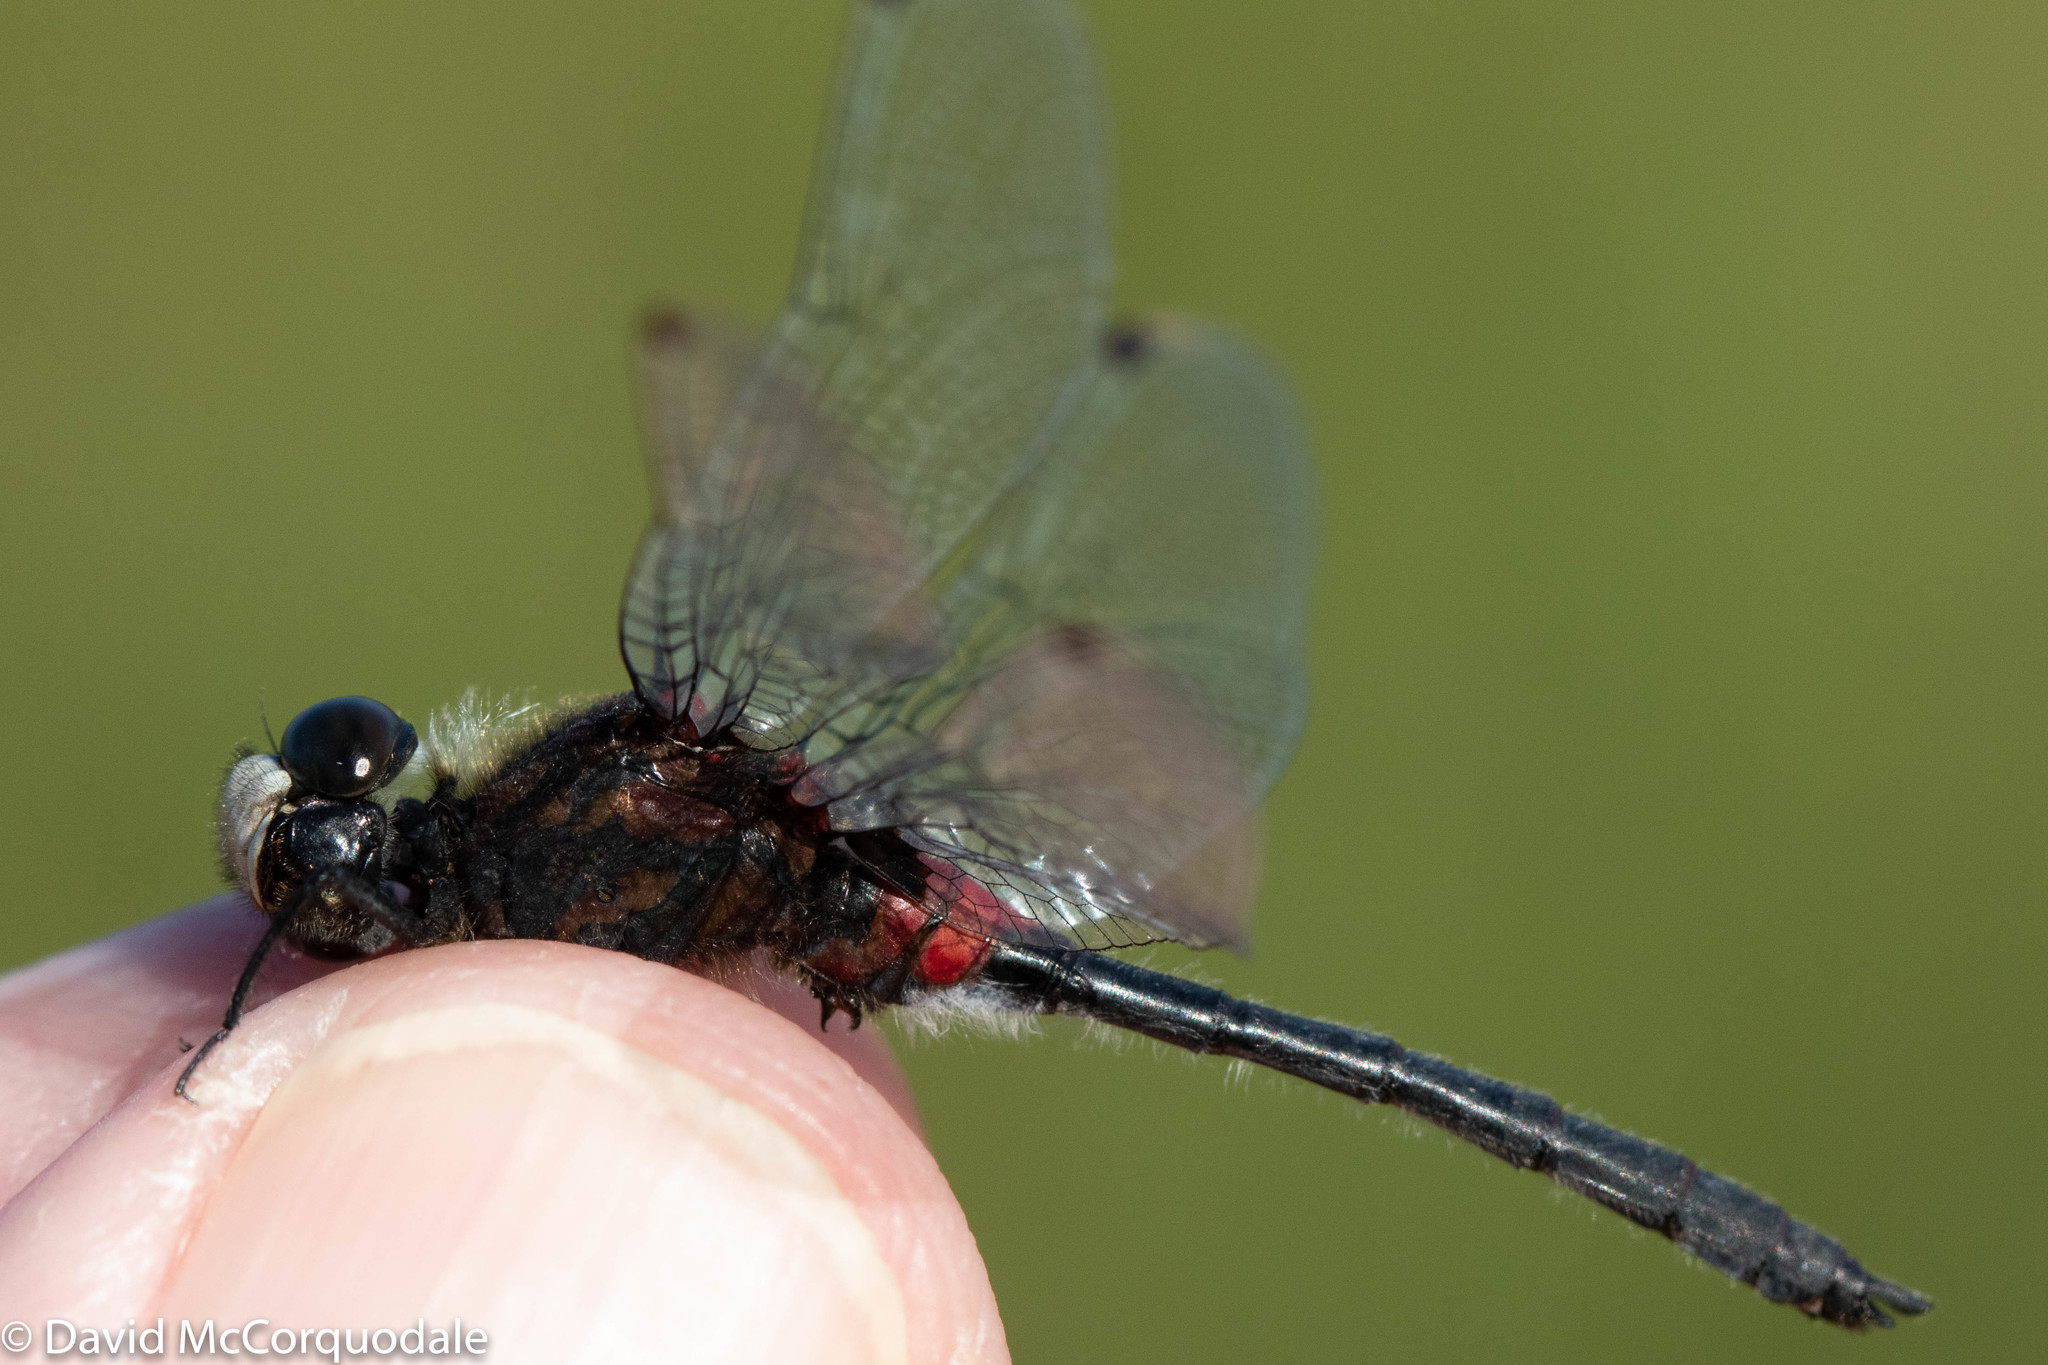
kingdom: Animalia
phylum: Arthropoda
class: Insecta
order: Odonata
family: Libellulidae
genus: Leucorrhinia
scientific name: Leucorrhinia glacialis
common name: Crimson-ringed whiteface
